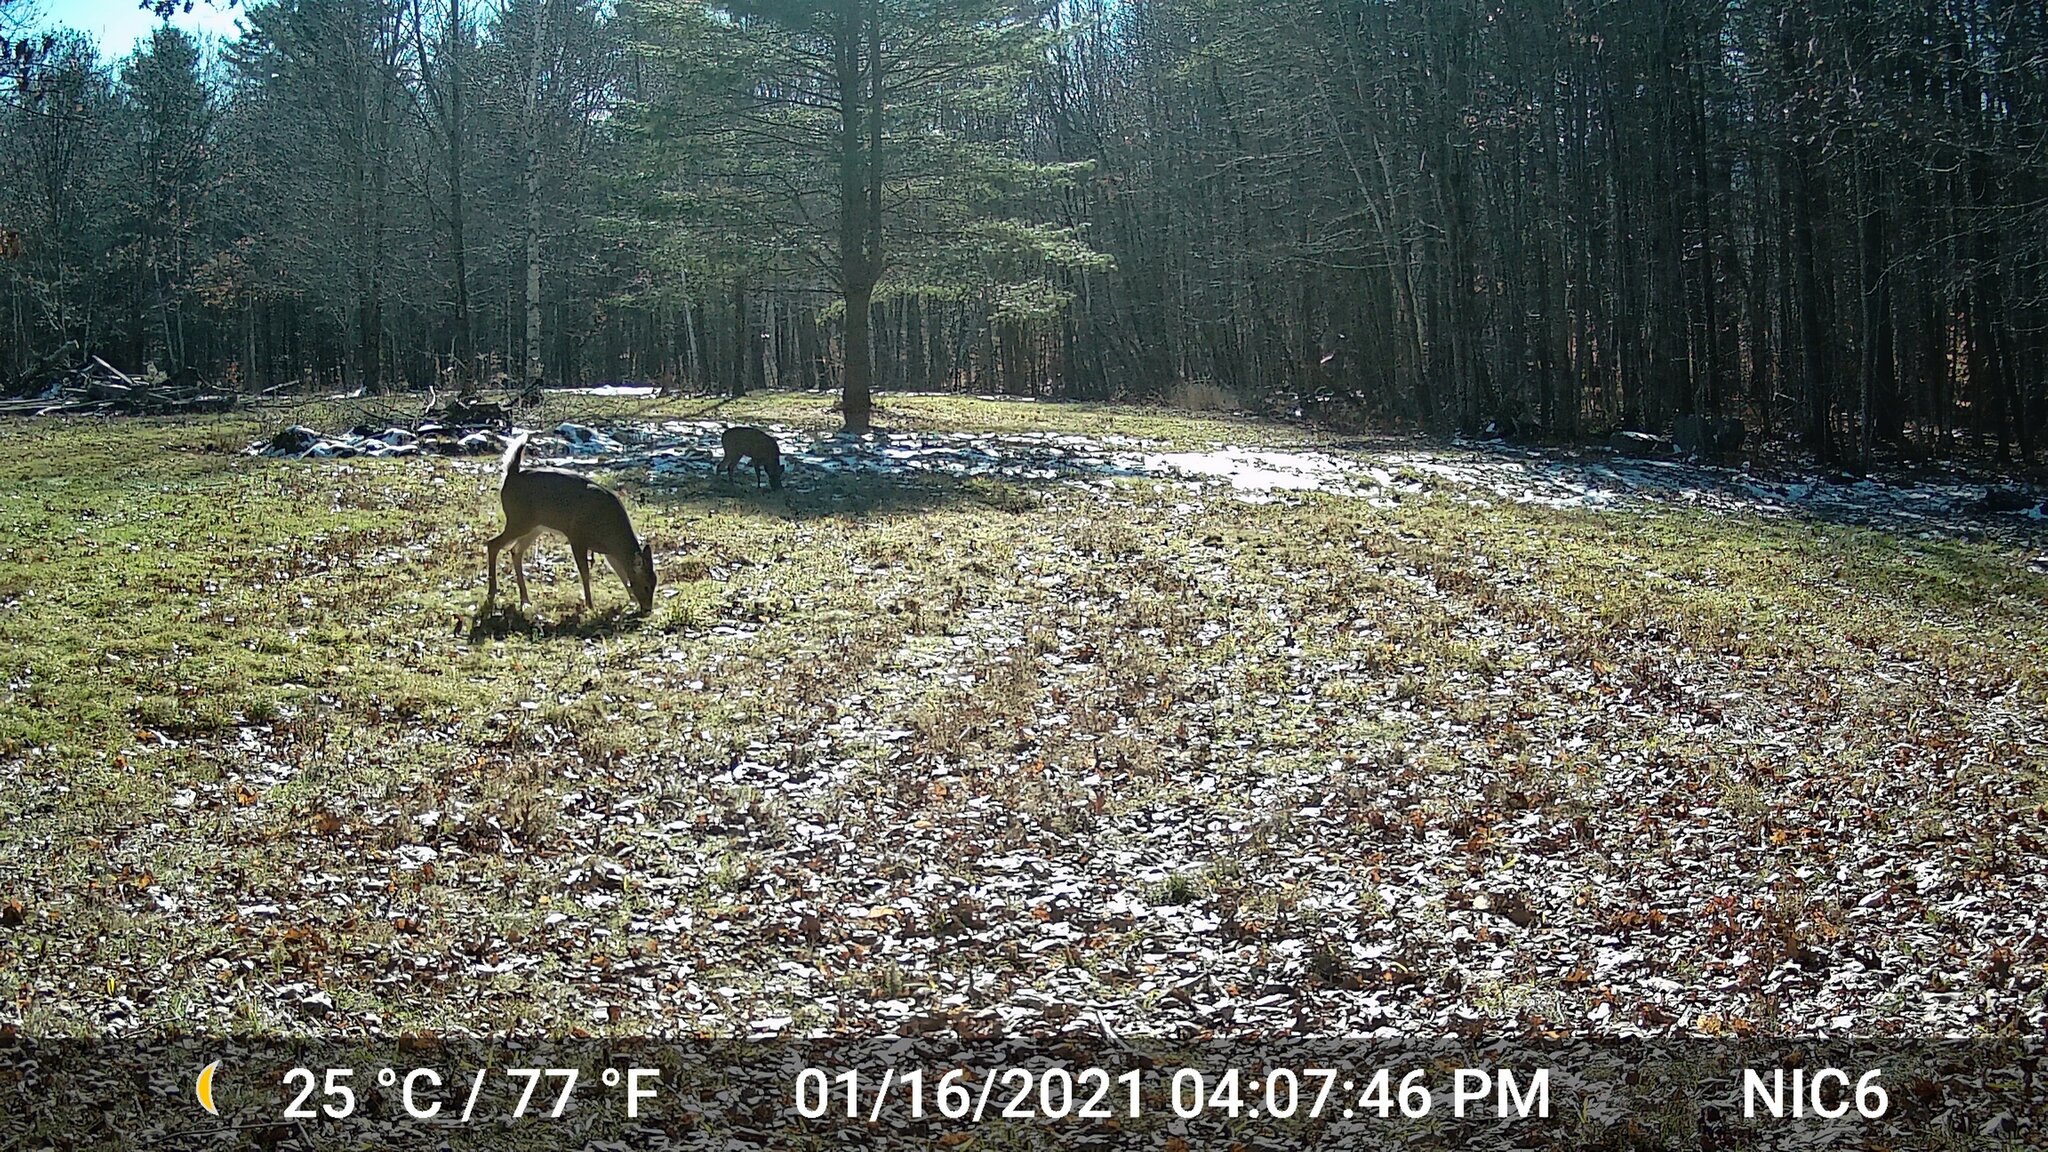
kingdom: Animalia
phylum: Chordata
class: Mammalia
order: Artiodactyla
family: Cervidae
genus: Odocoileus
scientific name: Odocoileus virginianus
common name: White-tailed deer
